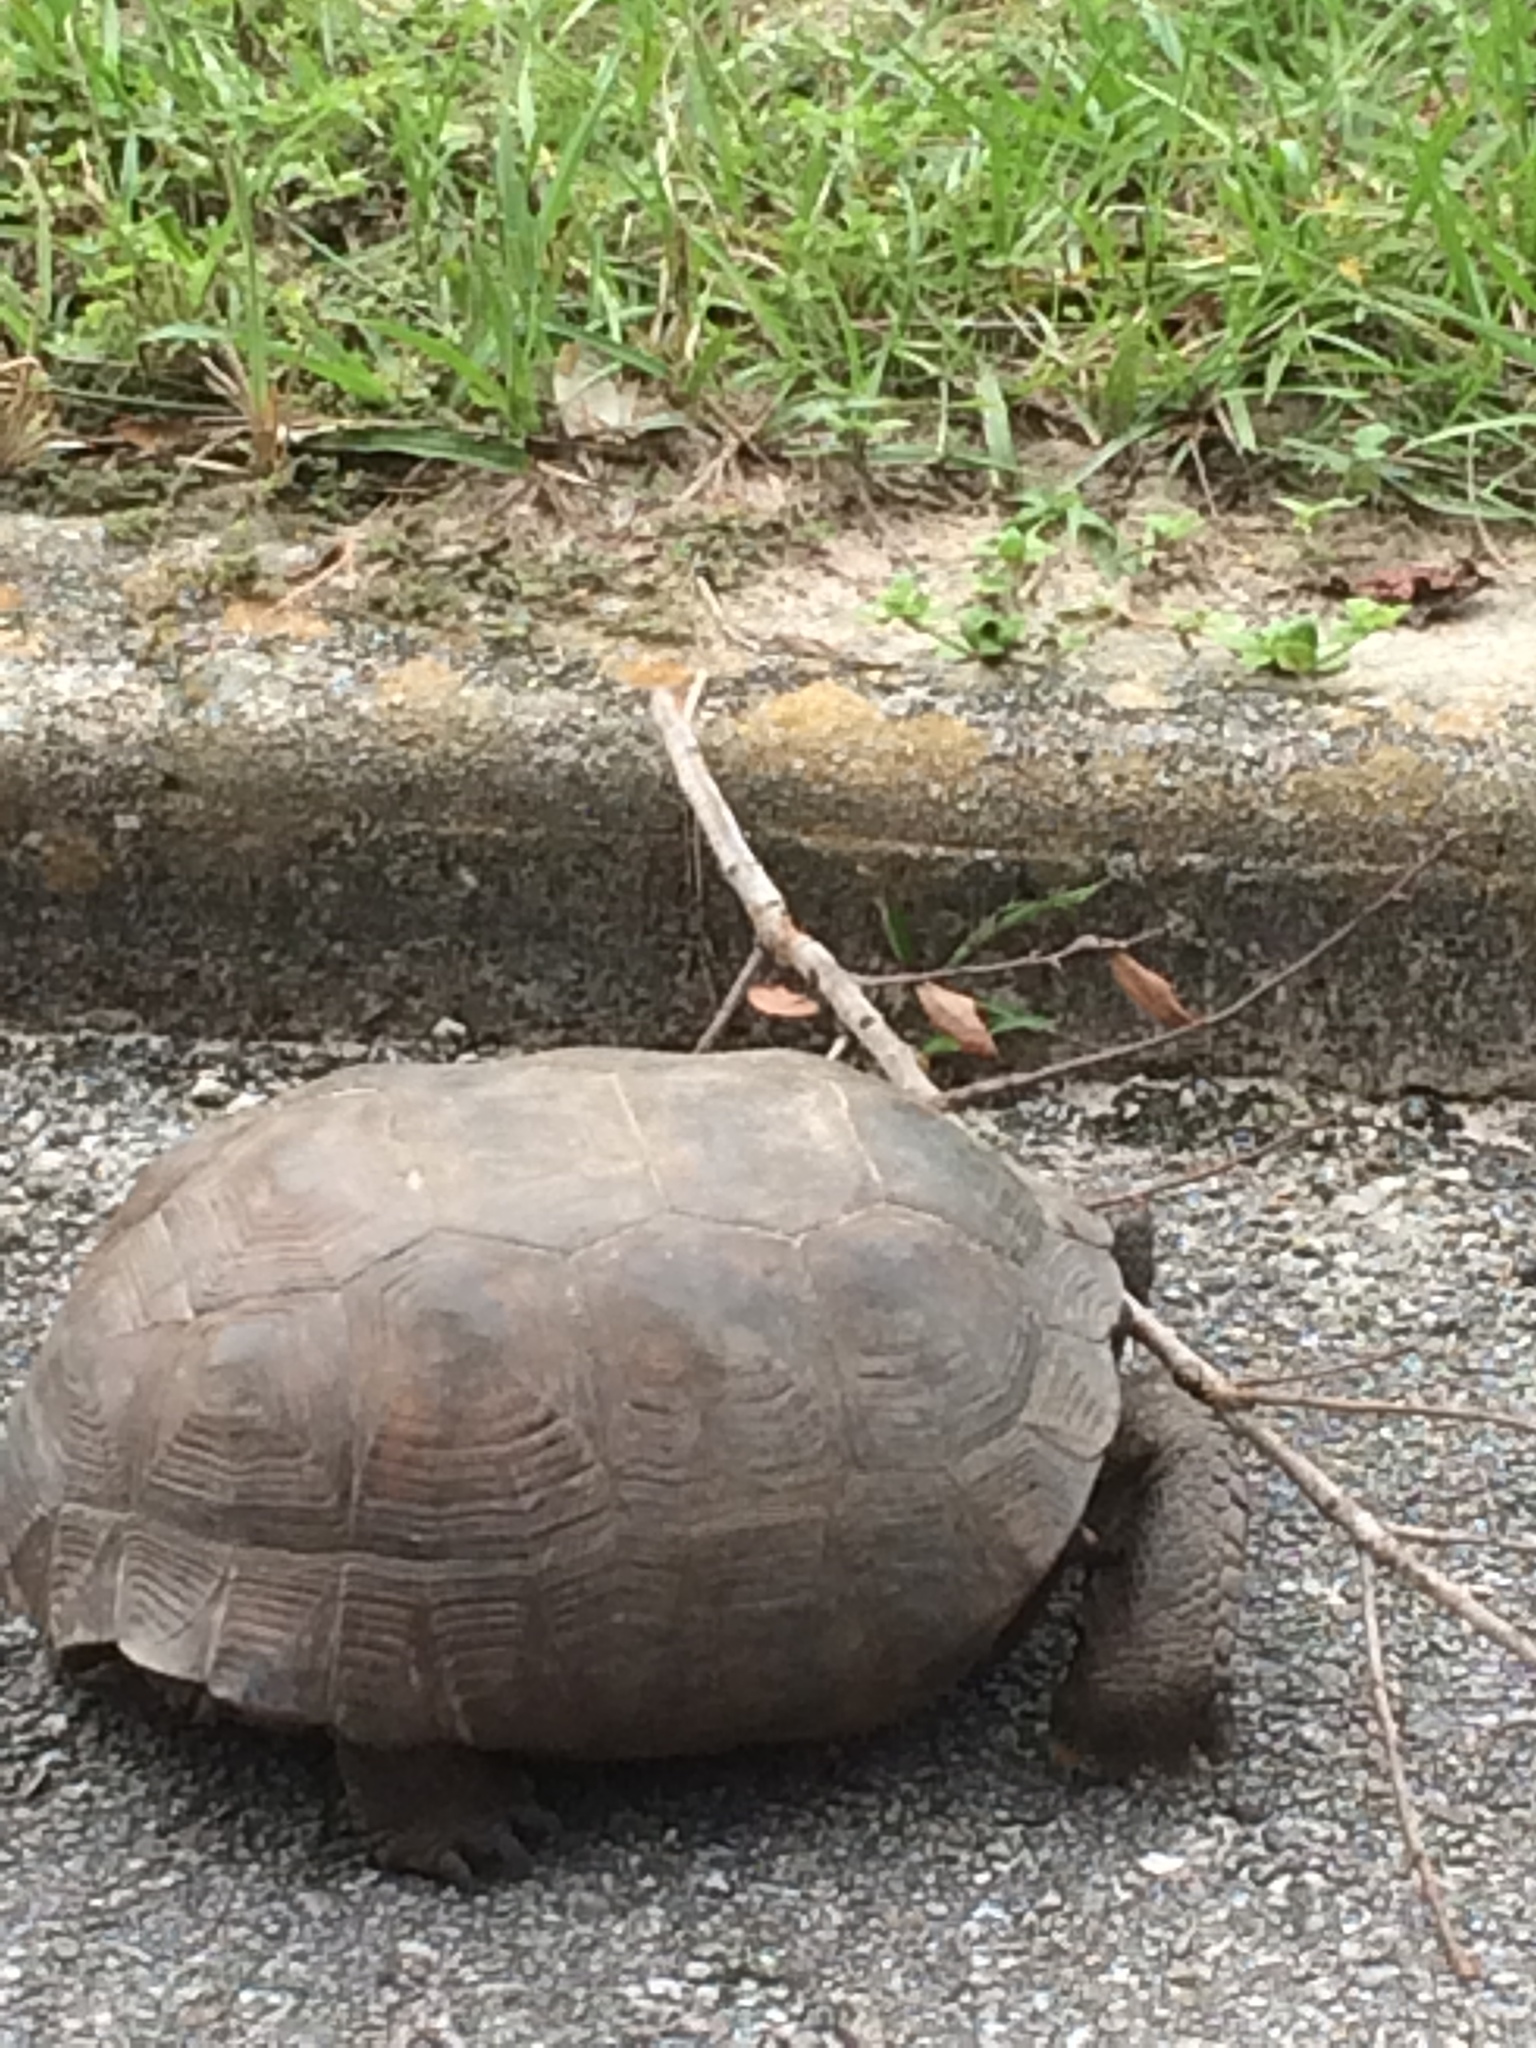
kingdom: Animalia
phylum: Chordata
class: Testudines
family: Testudinidae
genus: Gopherus
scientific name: Gopherus polyphemus
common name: Florida gopher tortoise
